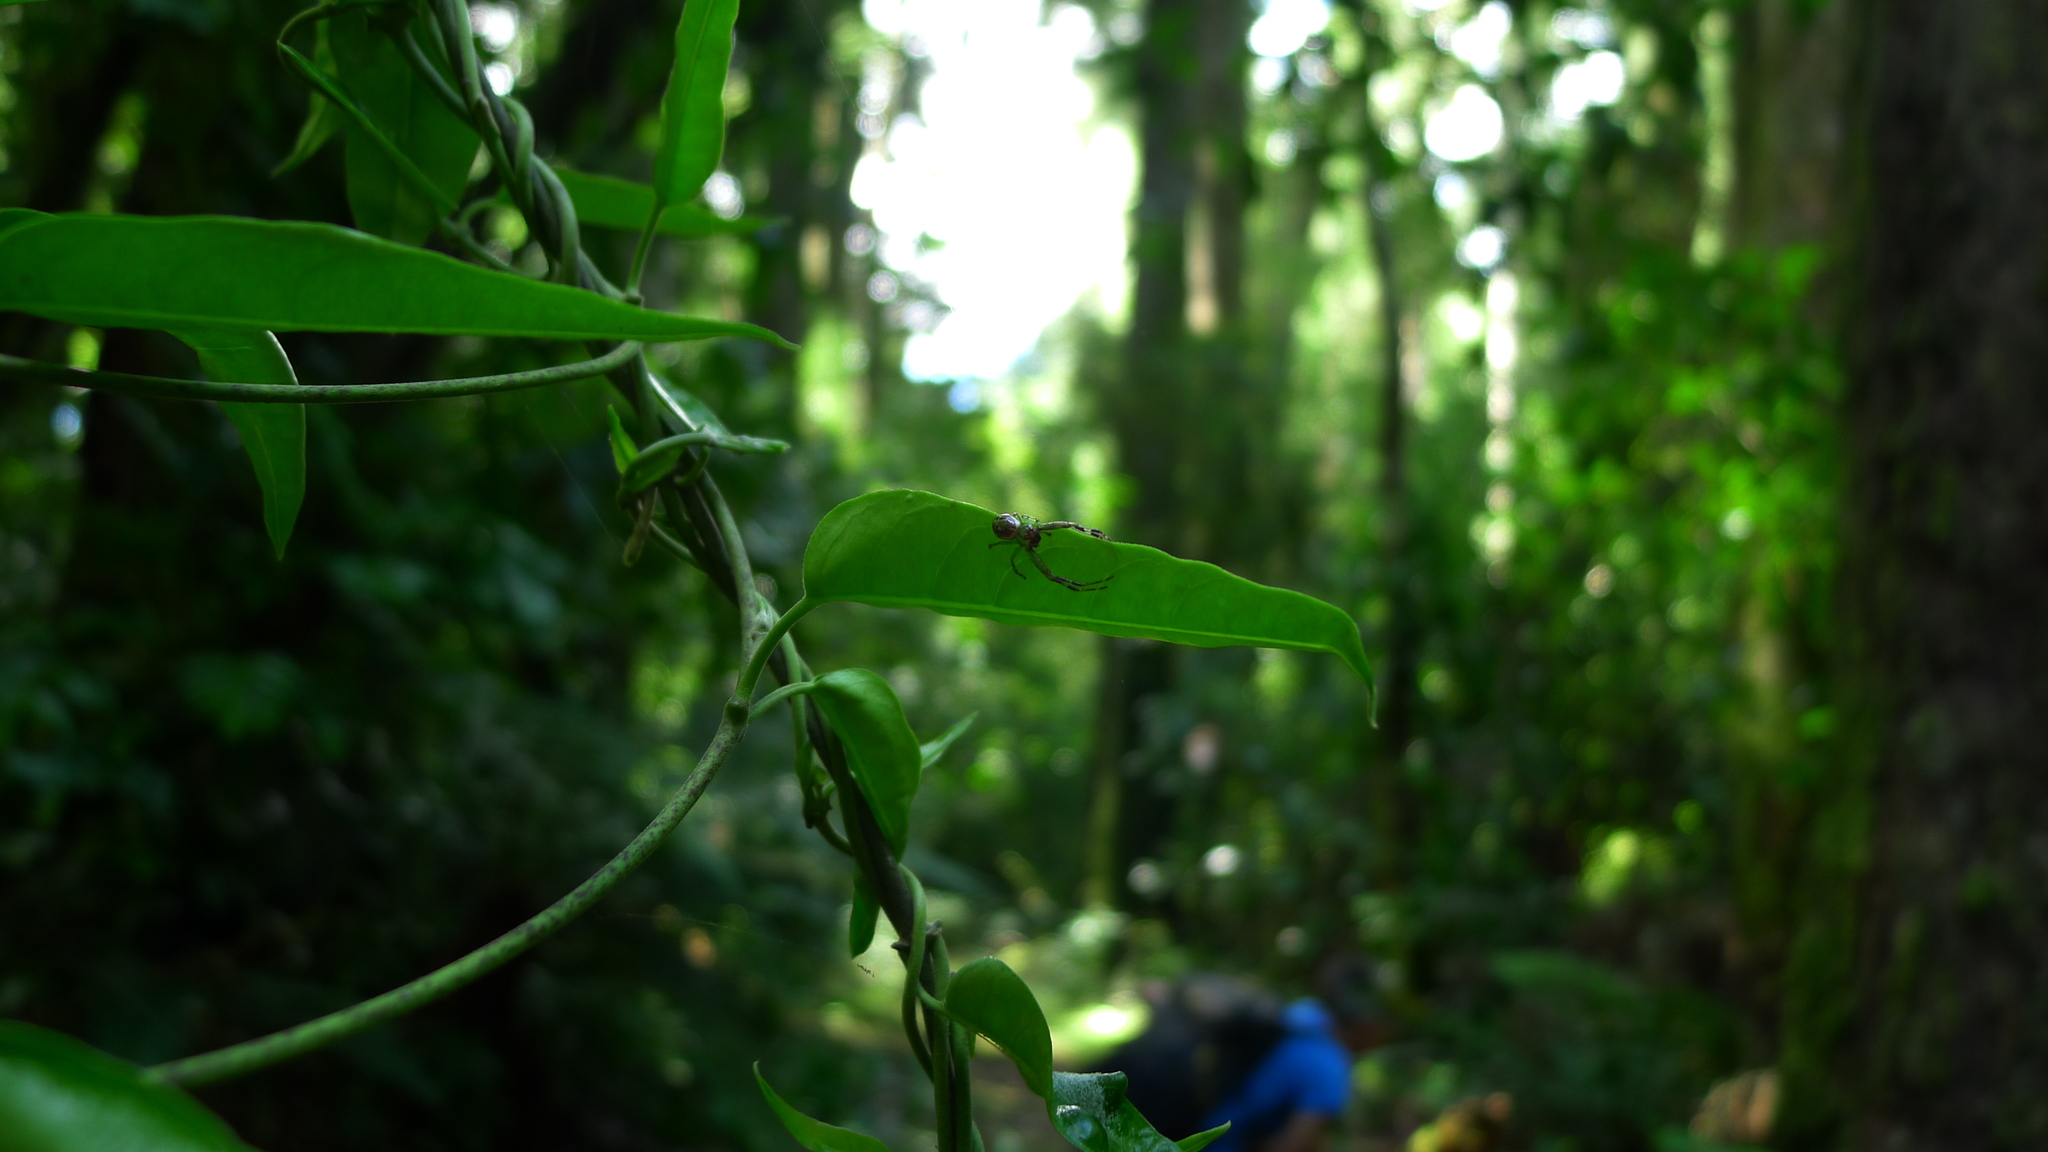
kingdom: Animalia
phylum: Arthropoda
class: Arachnida
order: Araneae
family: Thomisidae
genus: Diaea
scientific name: Diaea ambara
